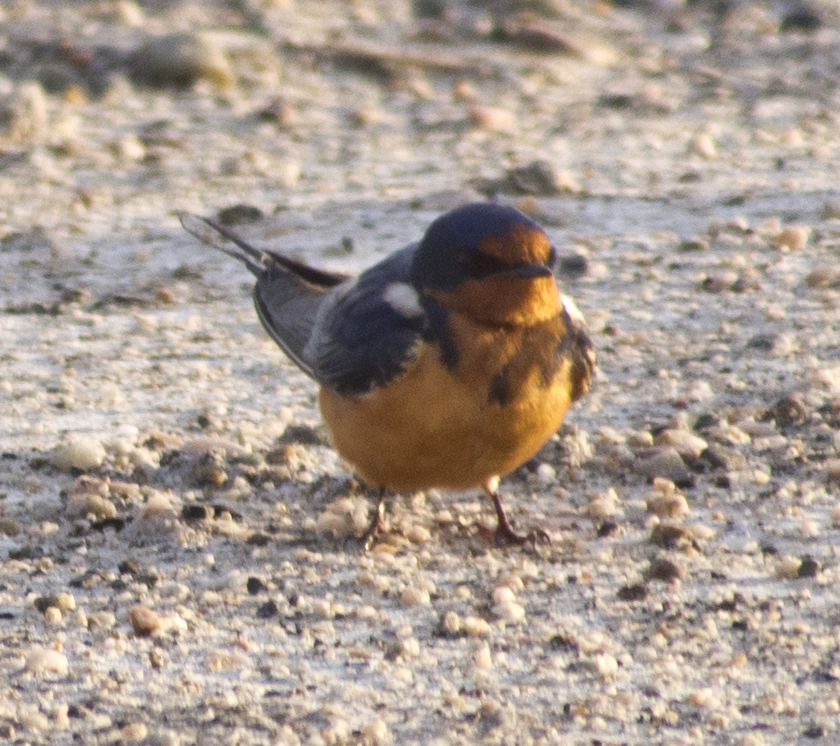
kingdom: Animalia
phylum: Chordata
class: Aves
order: Passeriformes
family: Hirundinidae
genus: Hirundo
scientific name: Hirundo rustica
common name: Barn swallow
